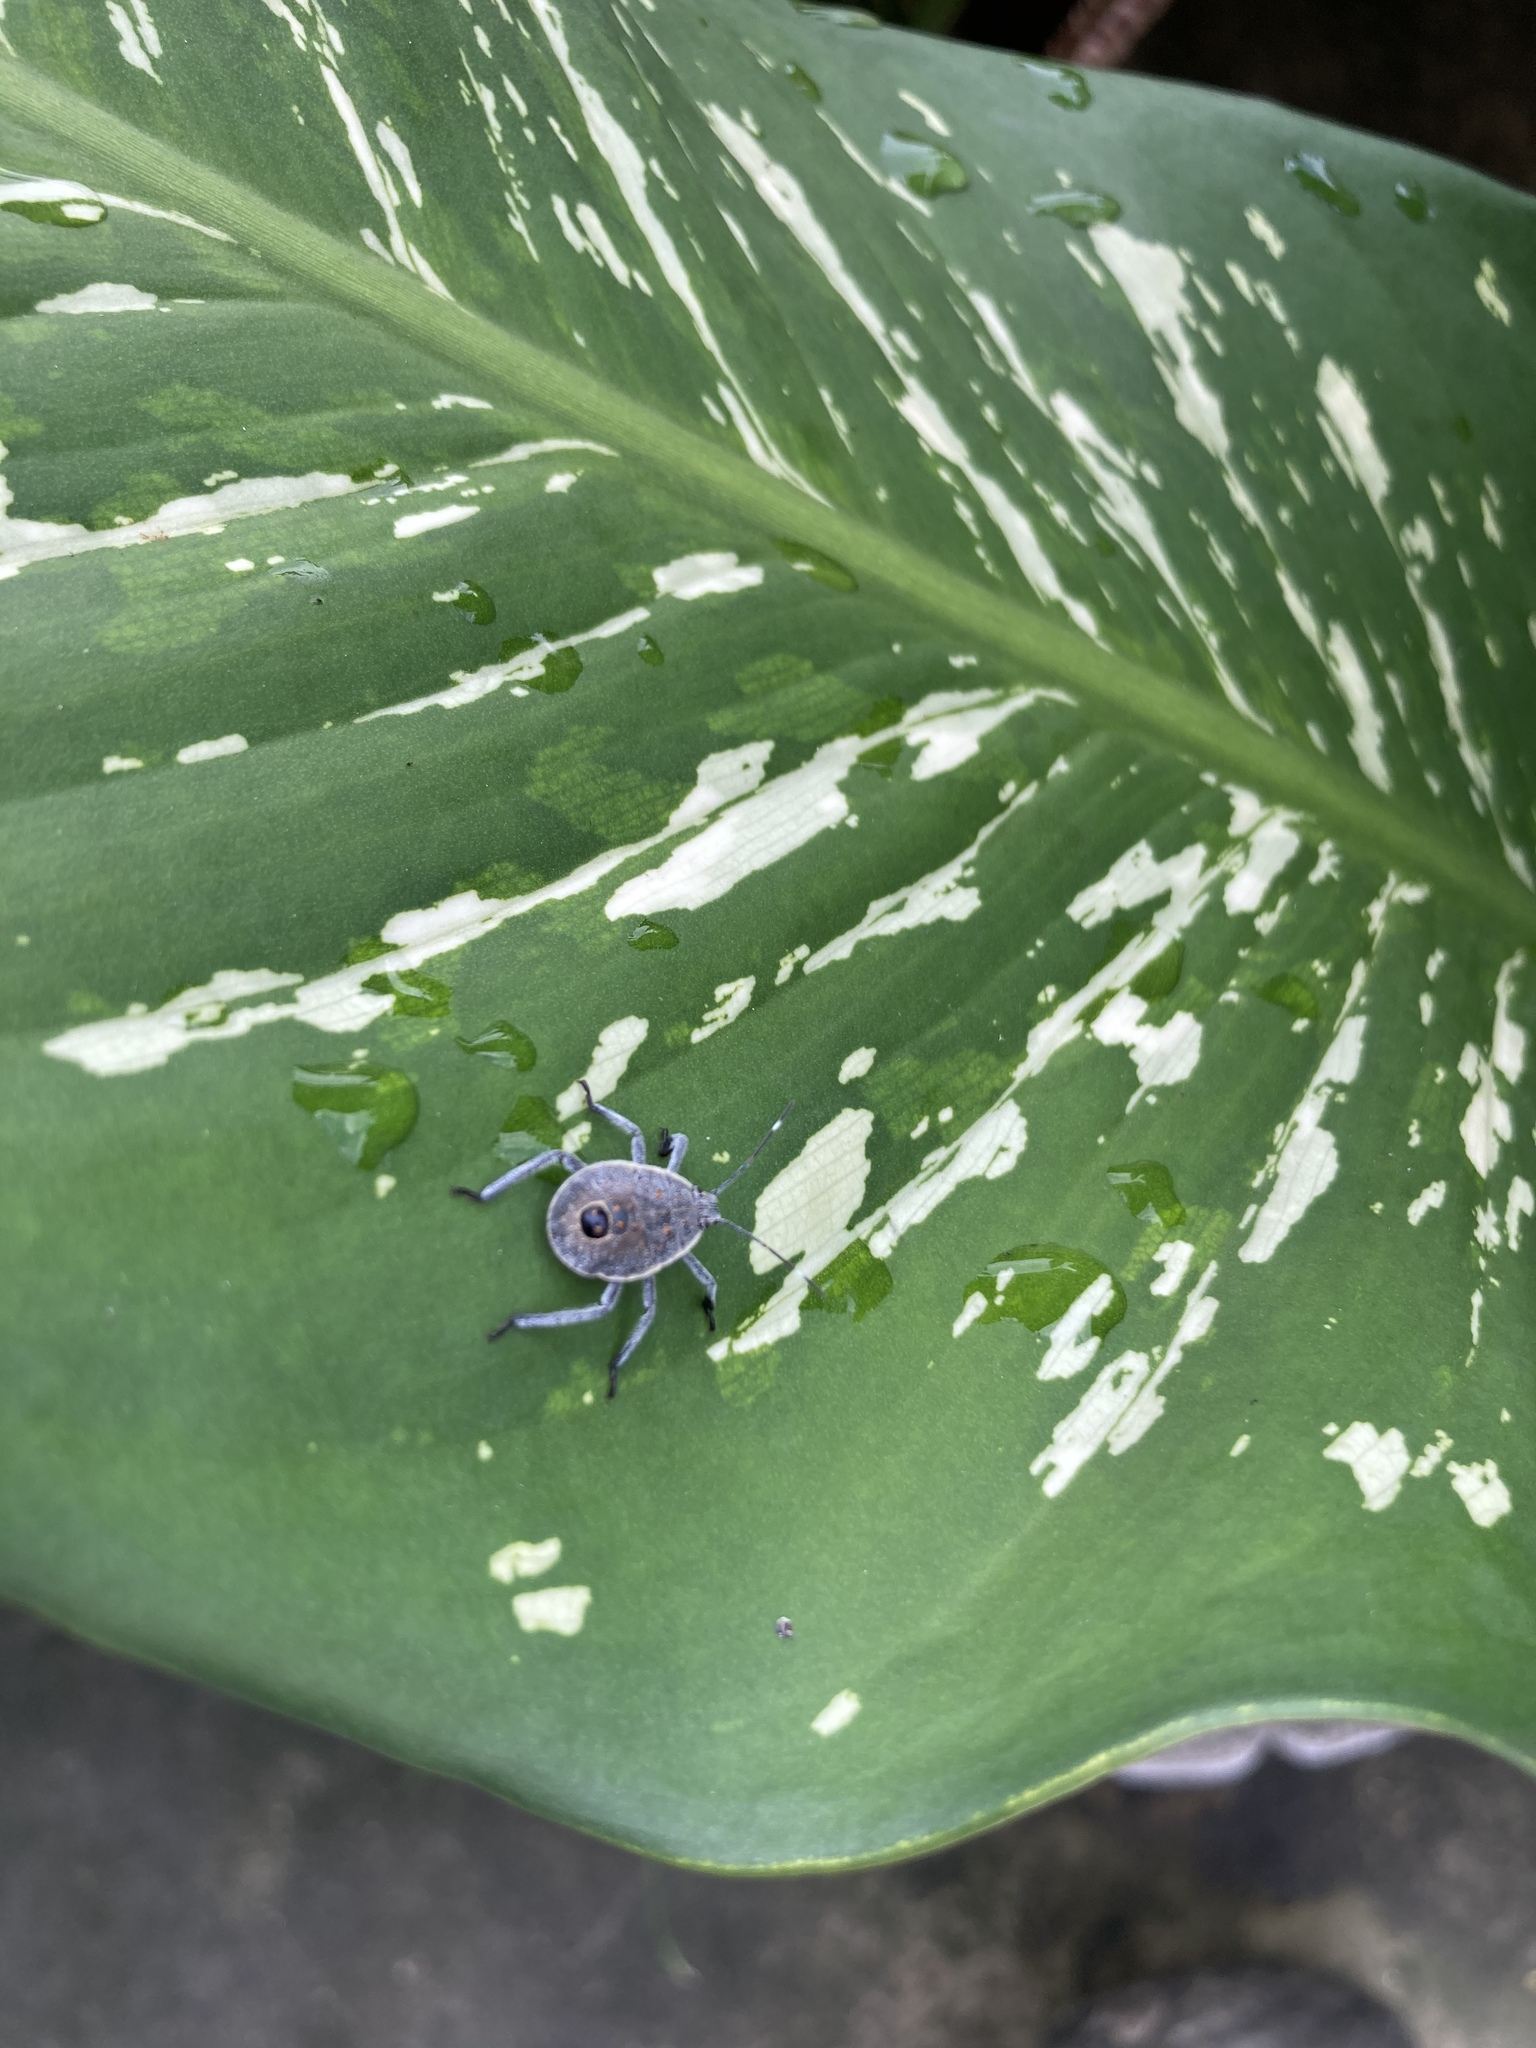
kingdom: Animalia
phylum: Arthropoda
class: Insecta
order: Hemiptera
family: Pentatomidae
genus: Erthesina
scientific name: Erthesina fullo
